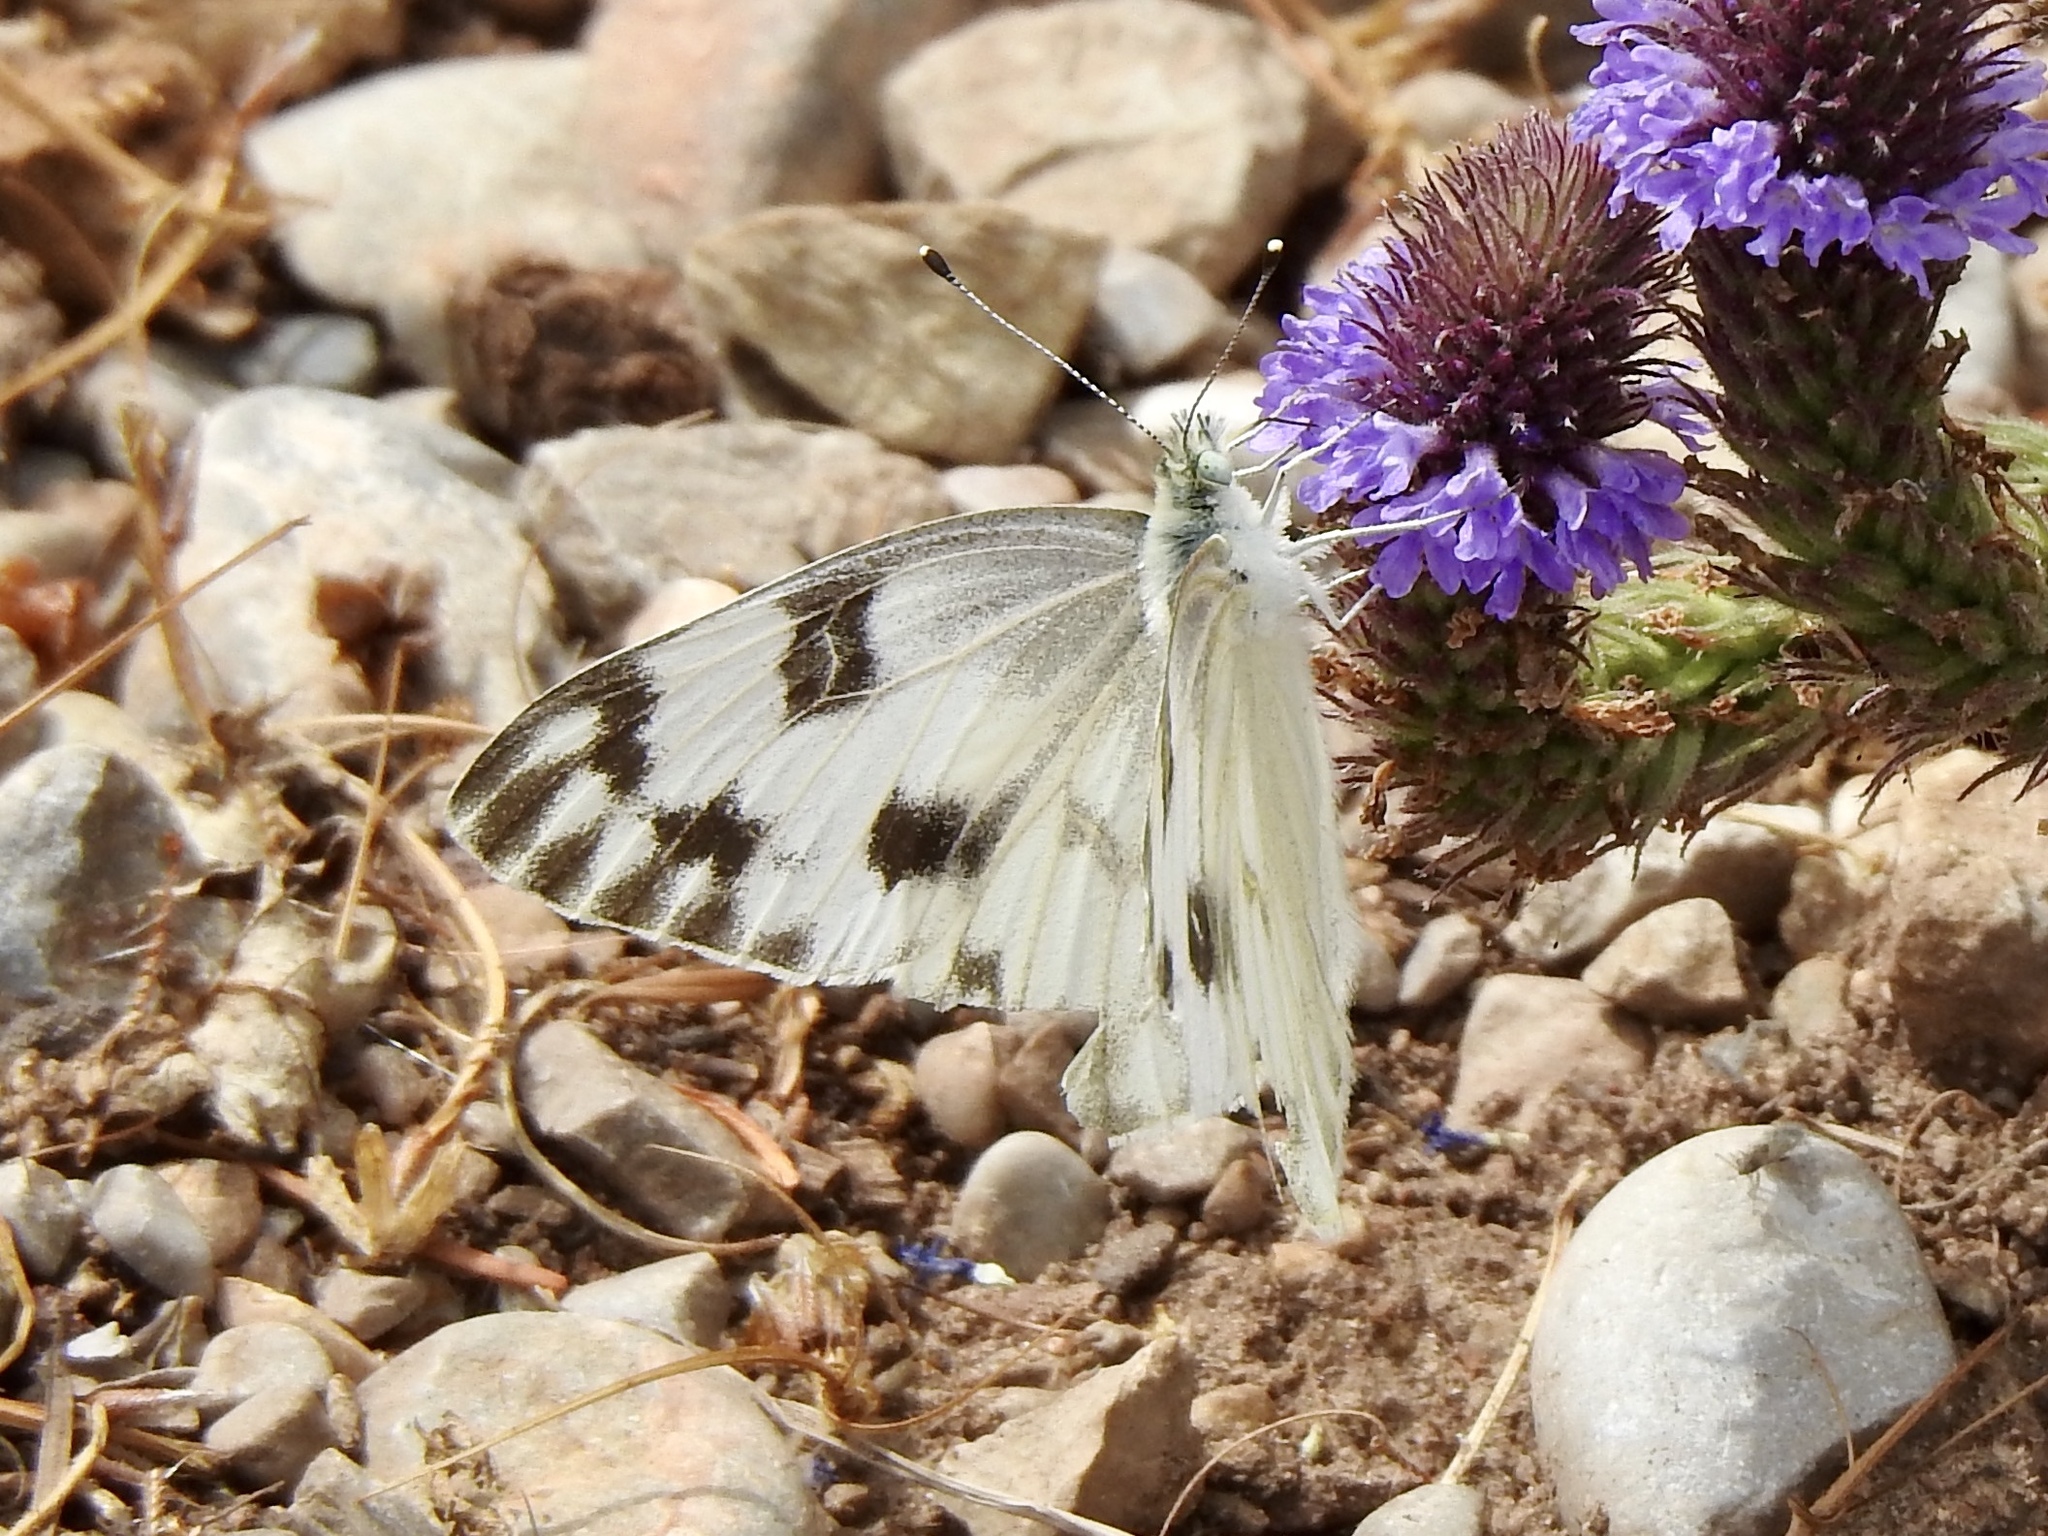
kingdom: Animalia
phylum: Arthropoda
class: Insecta
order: Lepidoptera
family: Pieridae
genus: Pontia
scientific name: Pontia protodice
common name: Checkered white
